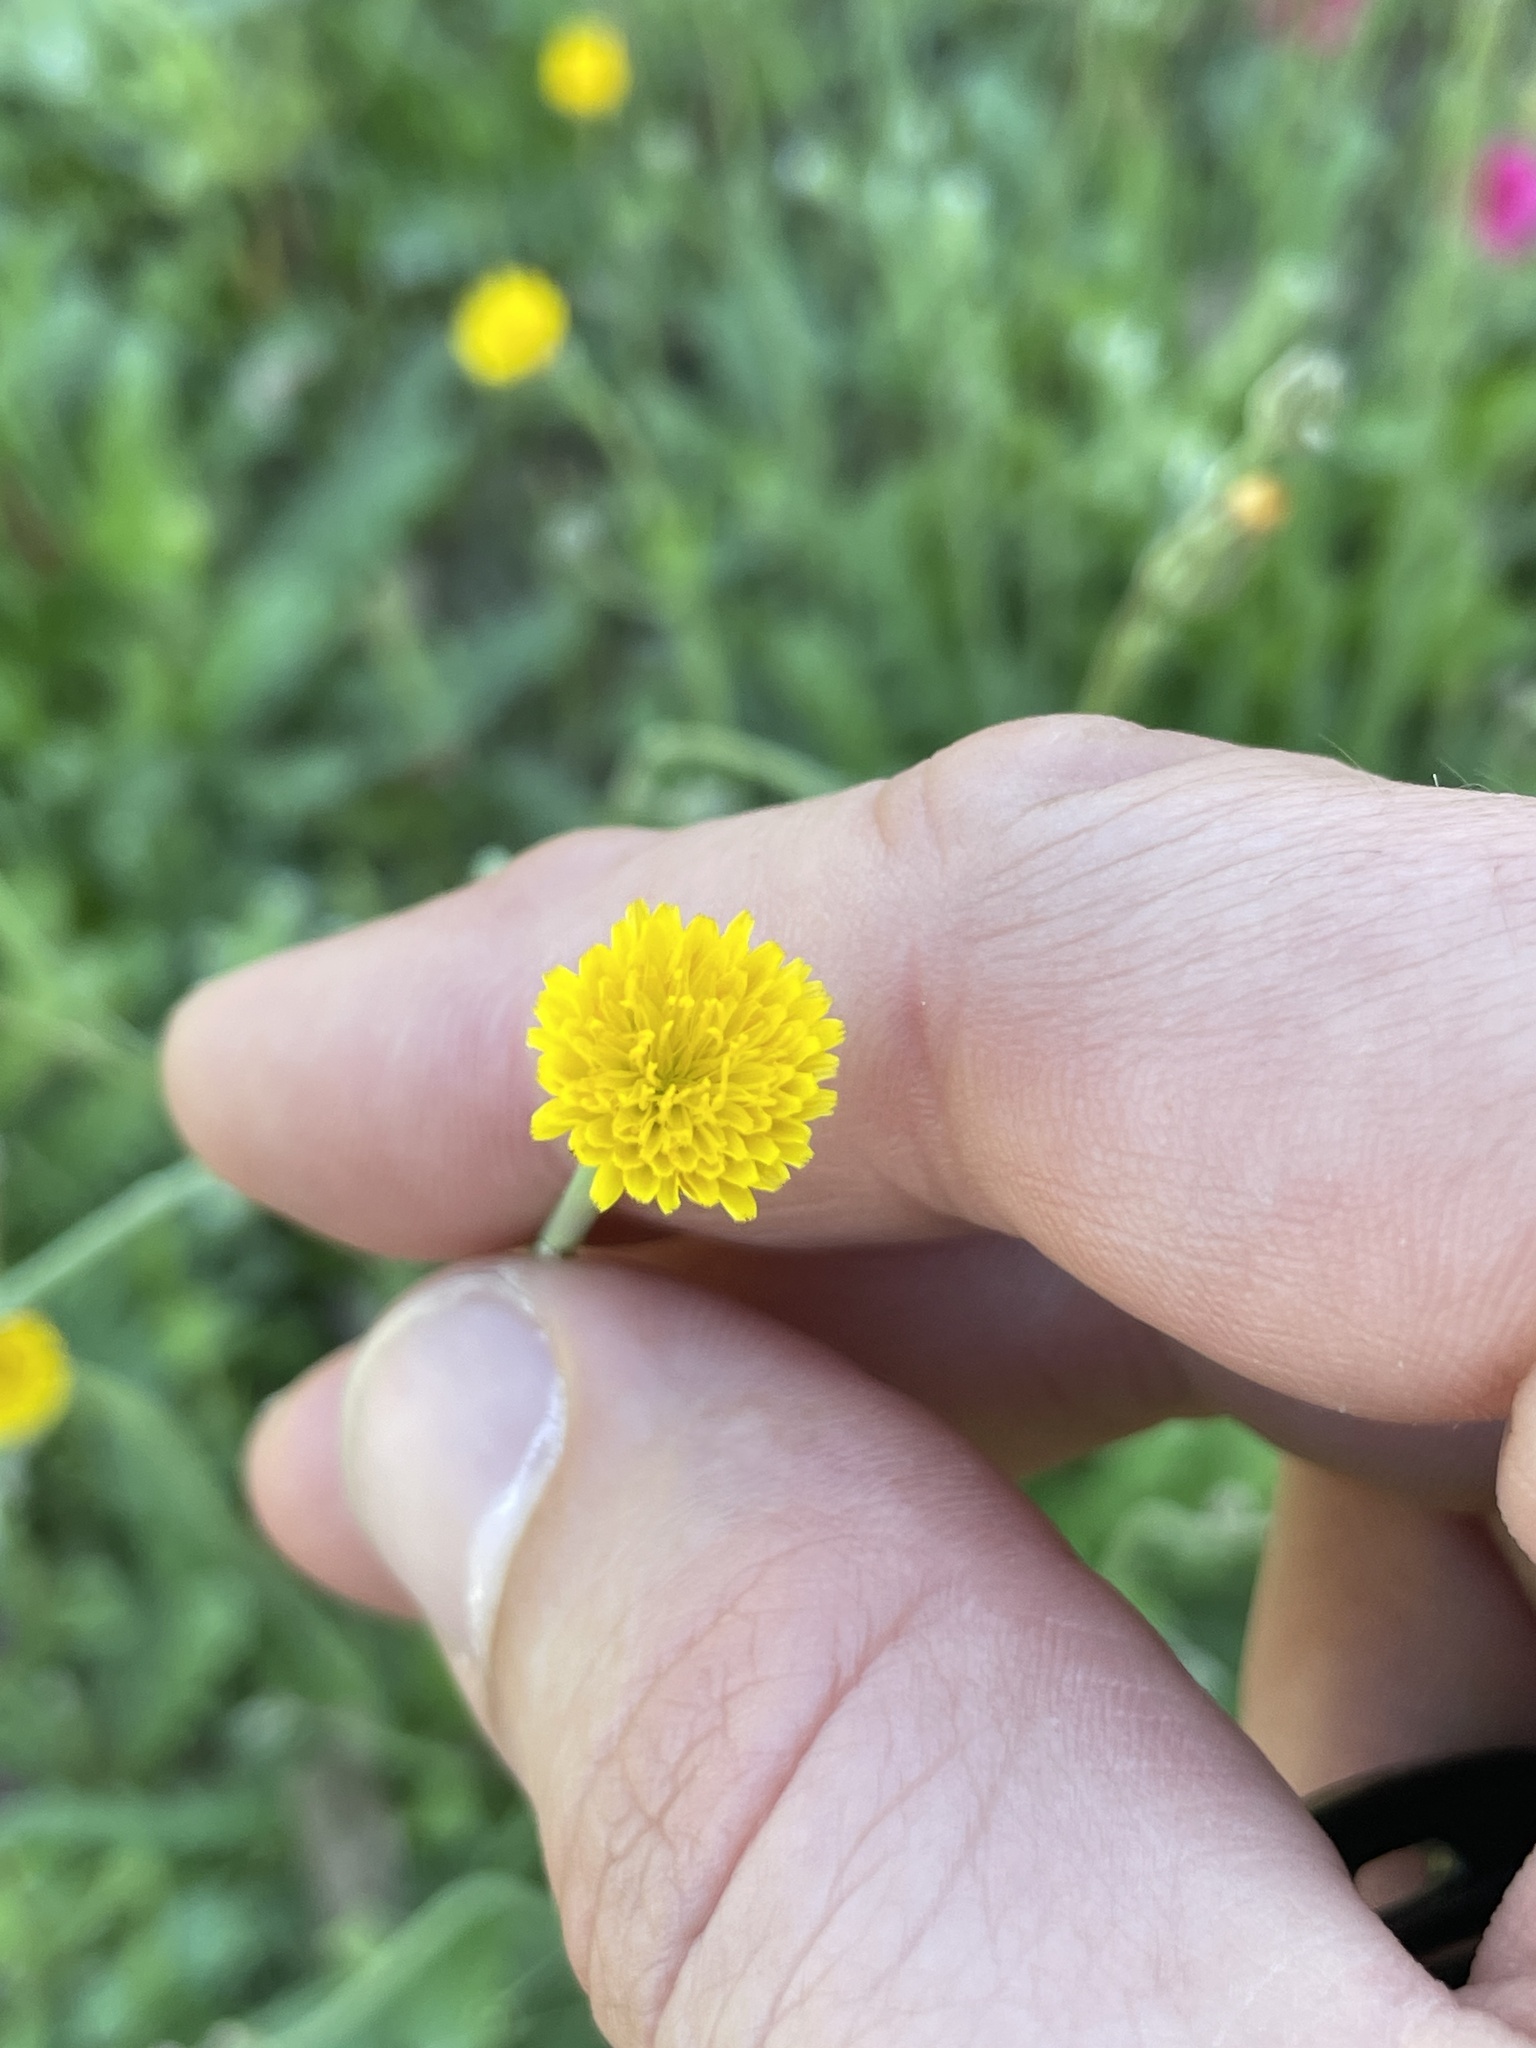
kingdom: Plantae
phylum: Tracheophyta
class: Magnoliopsida
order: Asterales
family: Asteraceae
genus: Hypochaeris
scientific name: Hypochaeris glabra
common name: Smooth catsear
